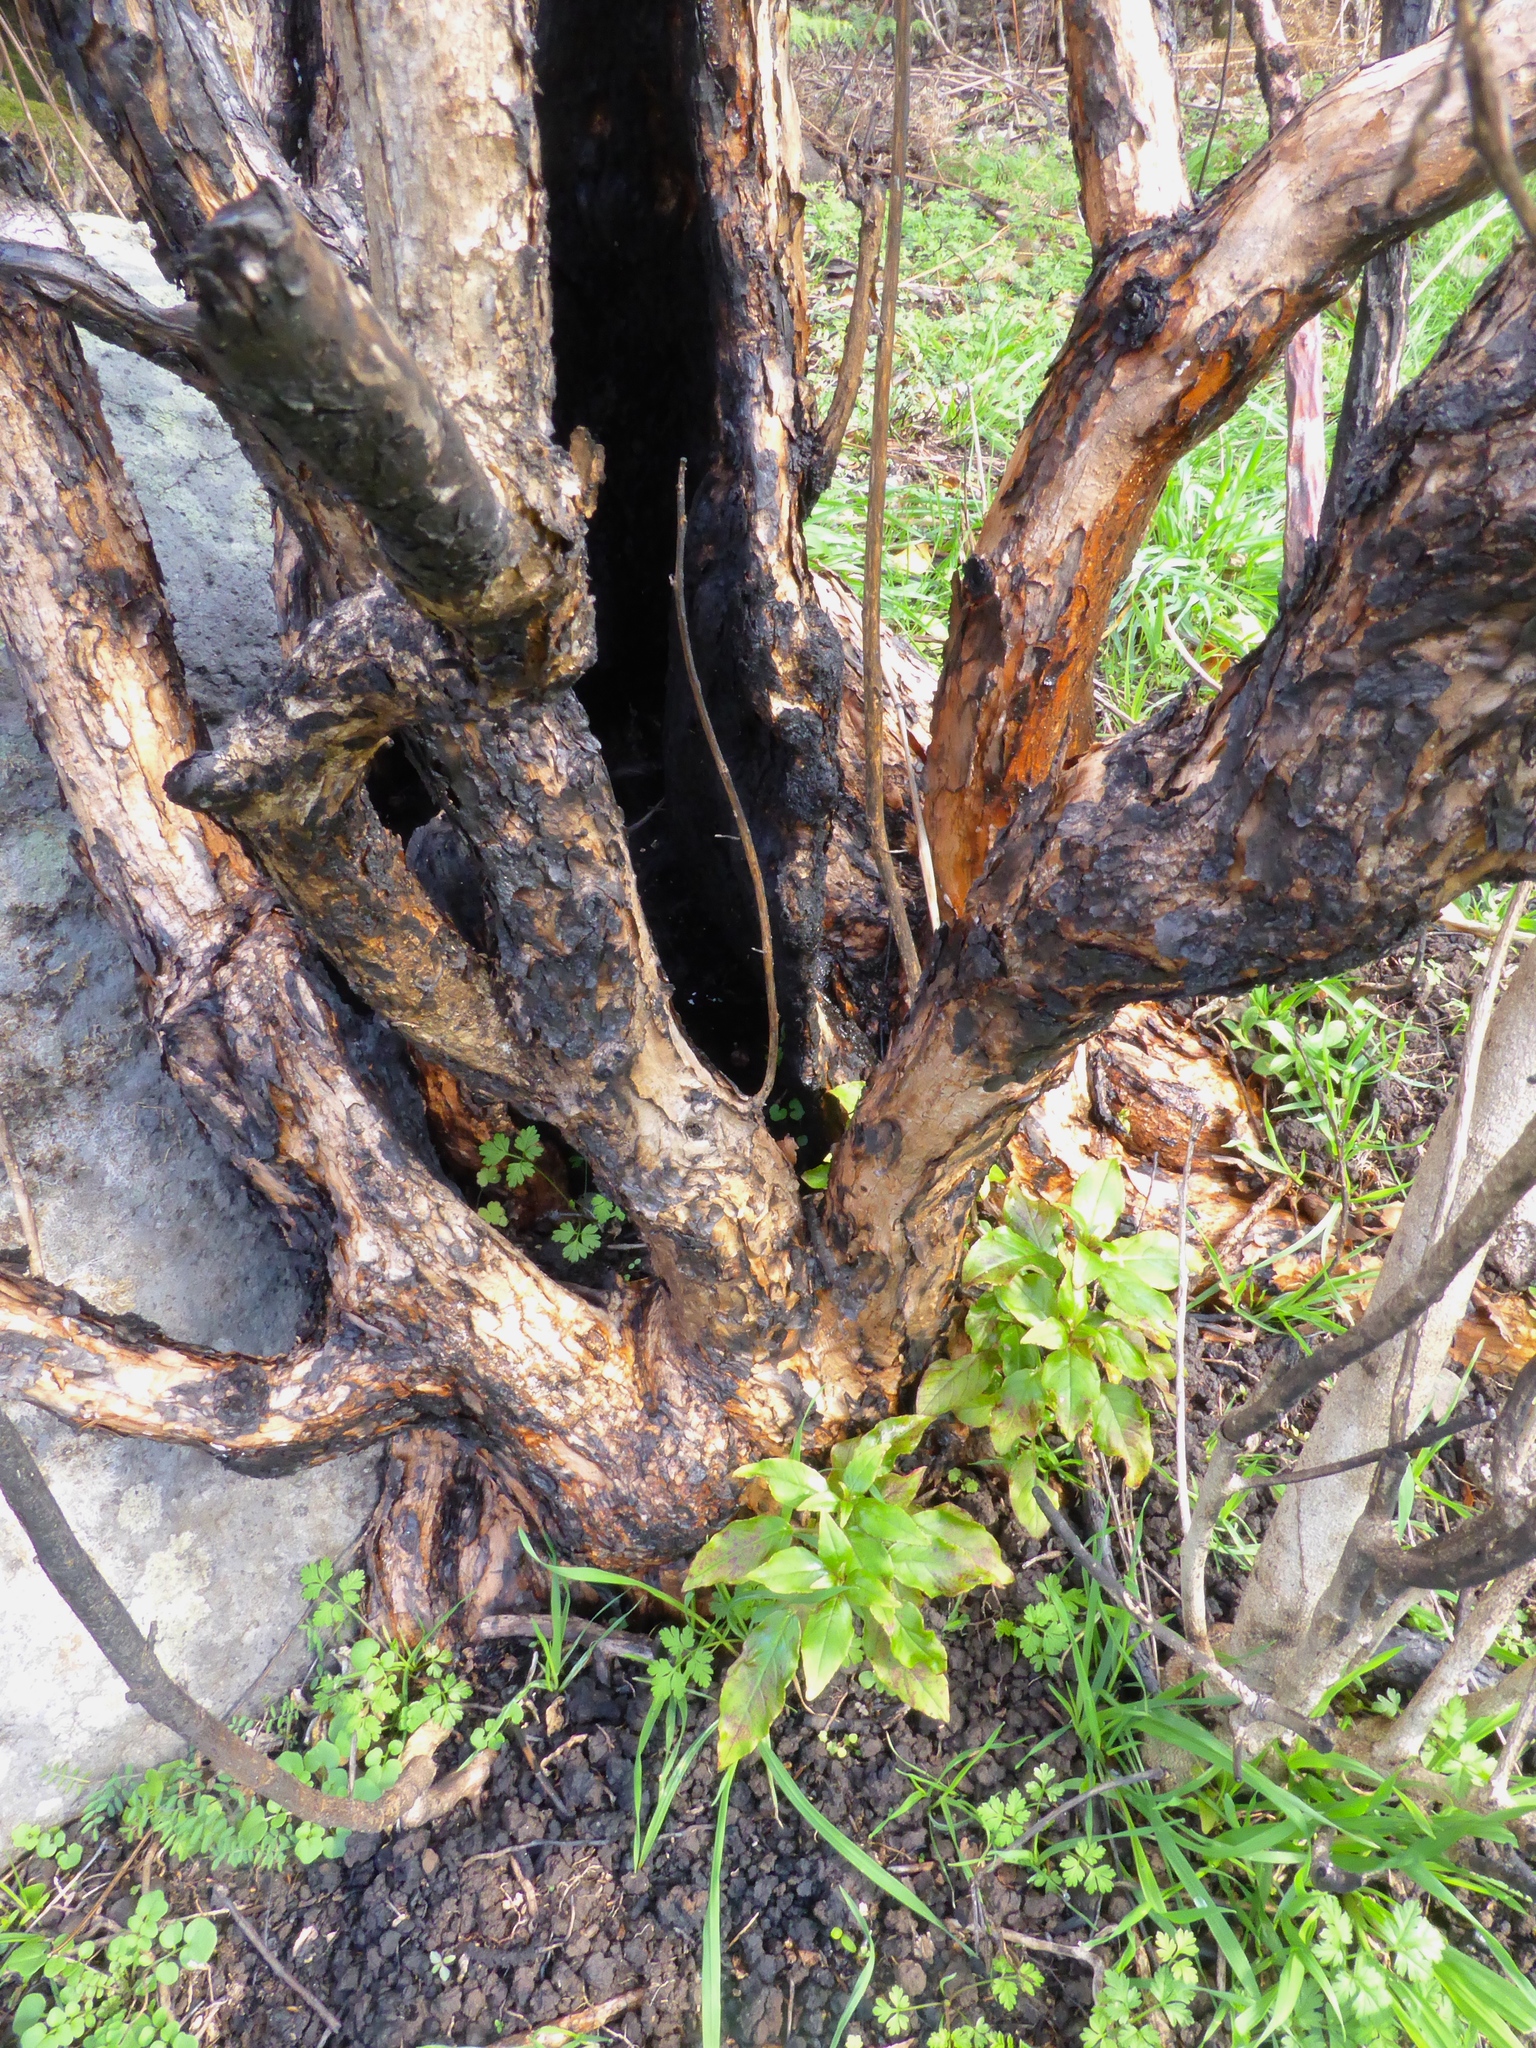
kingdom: Plantae
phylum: Tracheophyta
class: Magnoliopsida
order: Myrtales
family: Onagraceae
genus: Fuchsia
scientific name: Fuchsia excorticata
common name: Tree fuchsia
